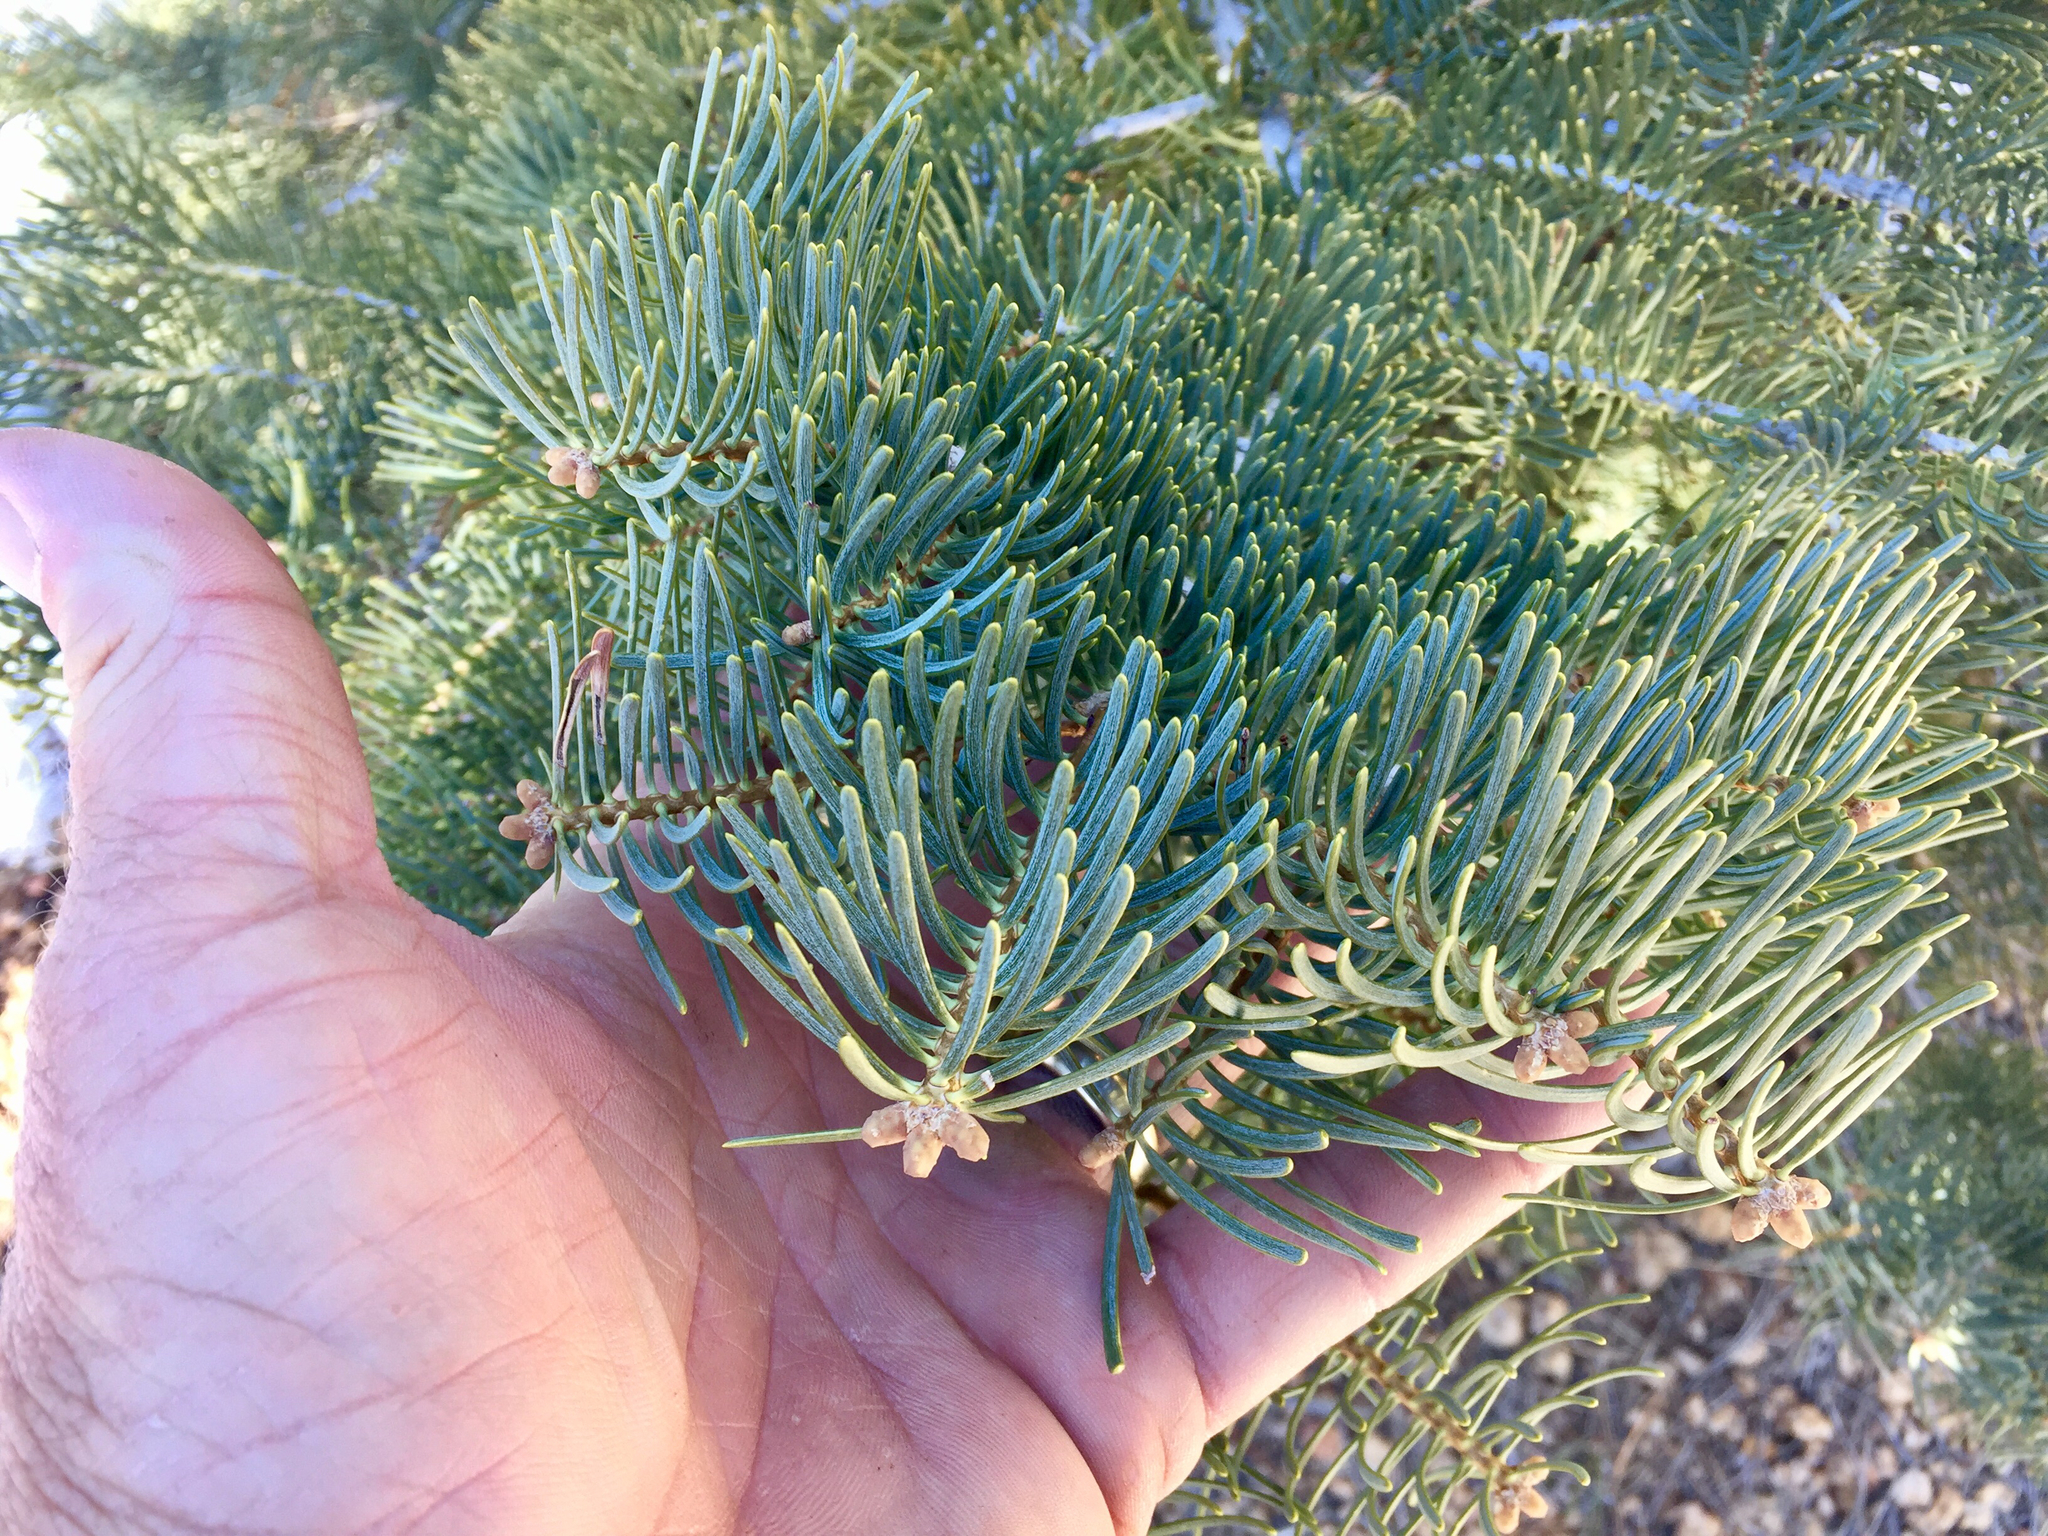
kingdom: Plantae
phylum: Tracheophyta
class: Pinopsida
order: Pinales
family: Pinaceae
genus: Abies
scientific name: Abies concolor
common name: Colorado fir
